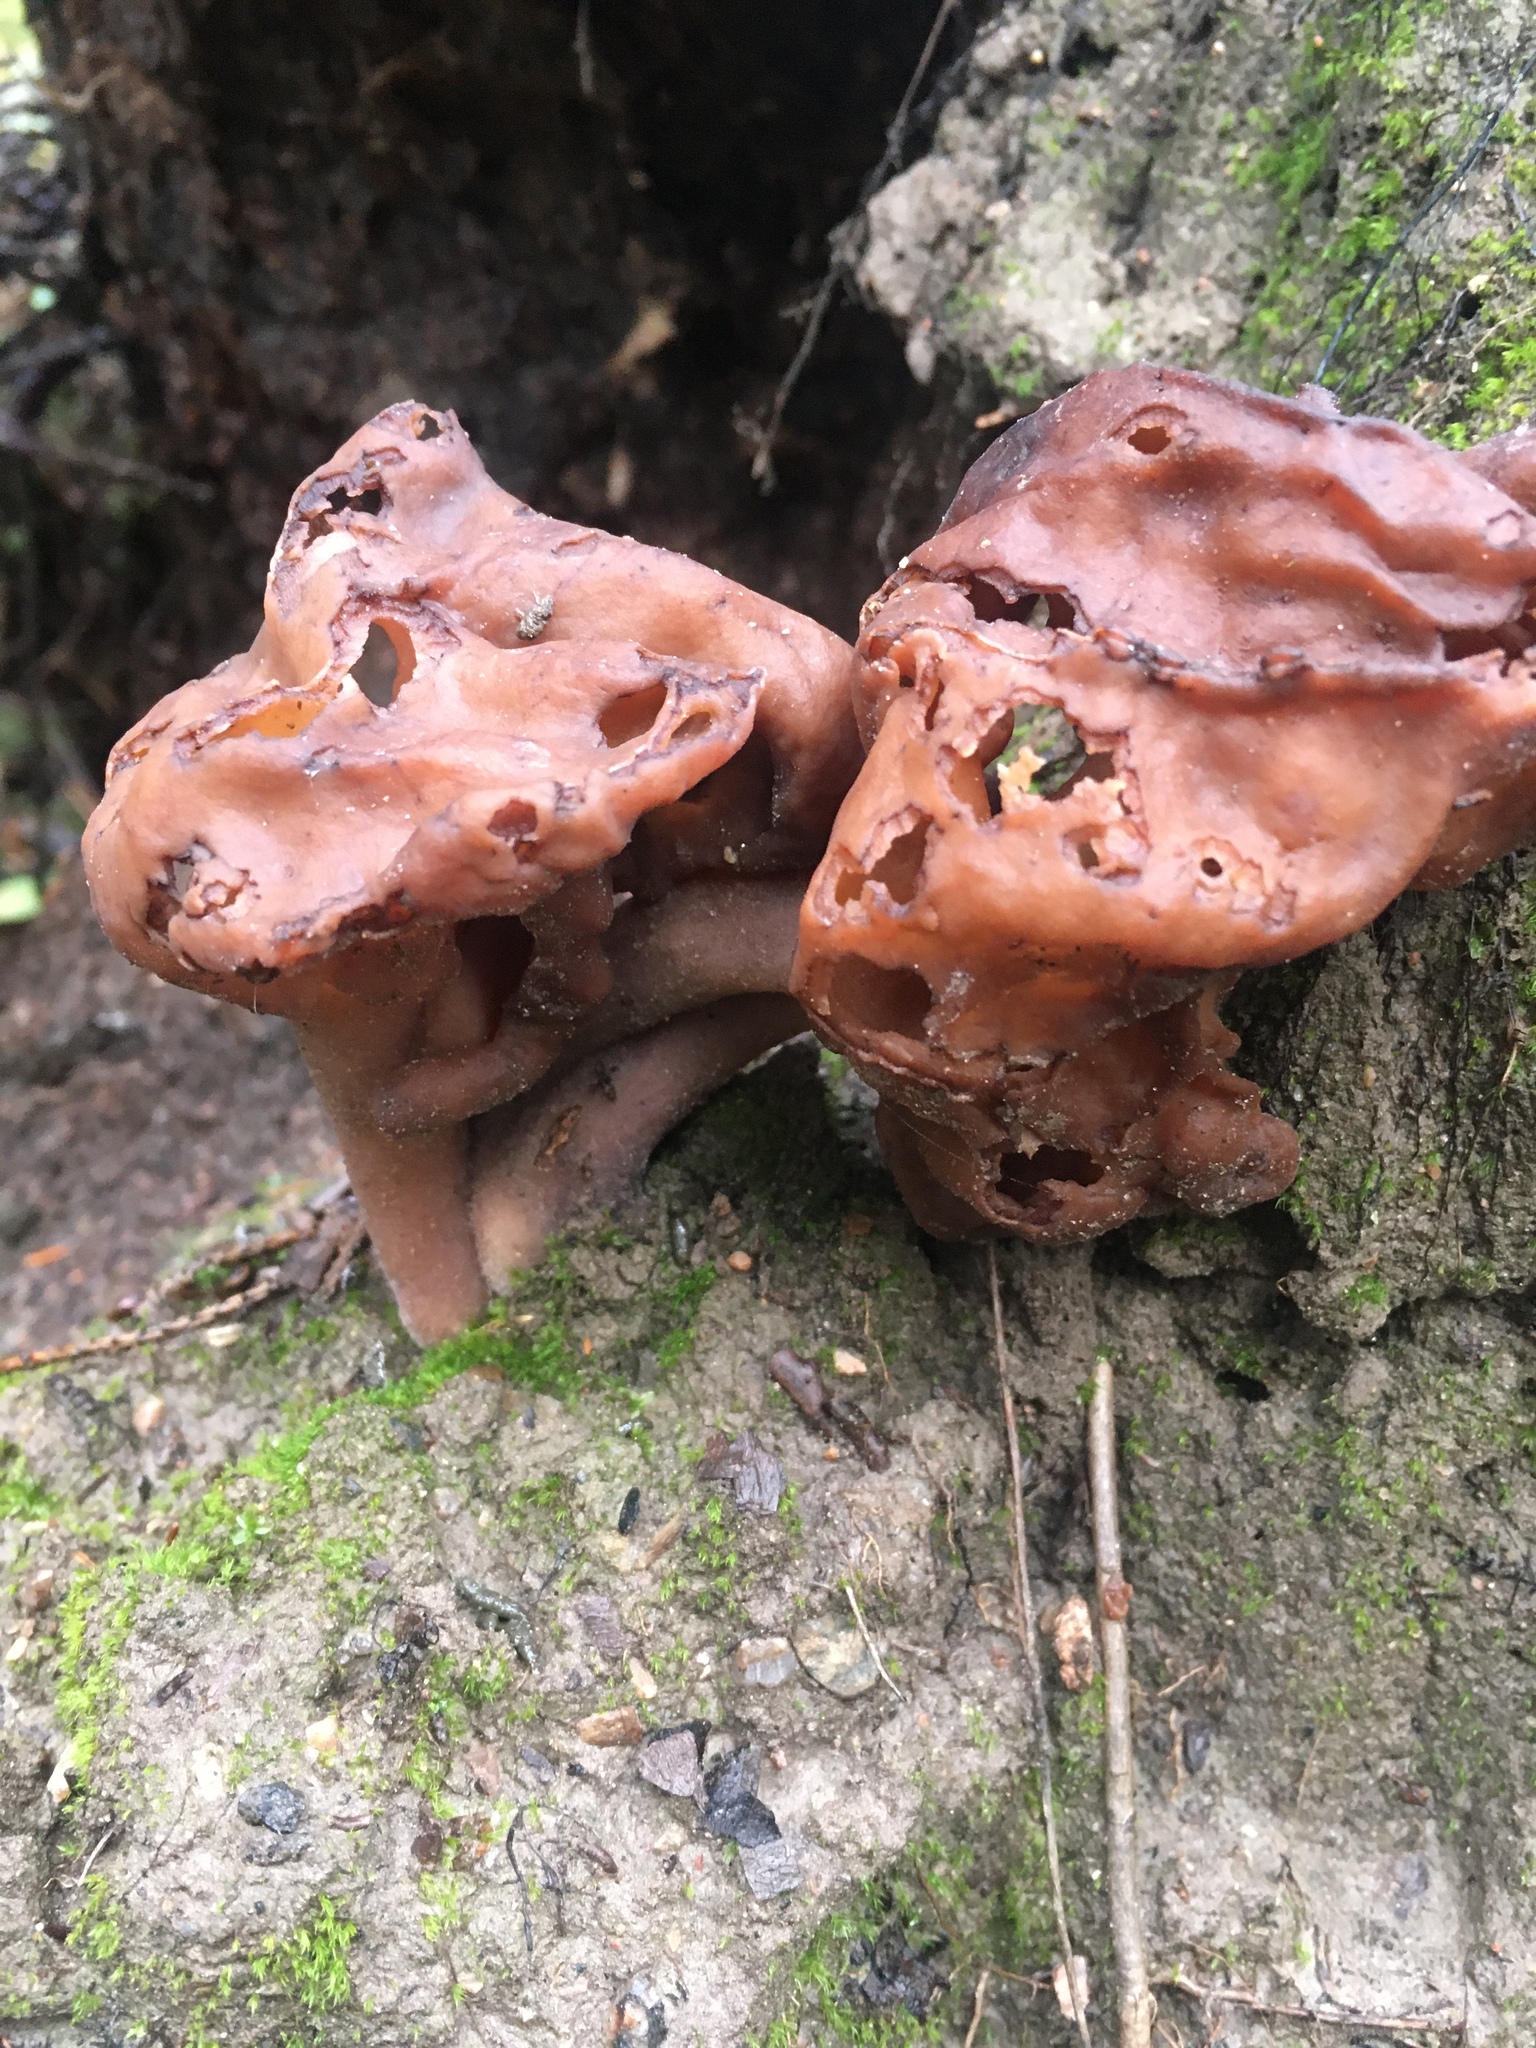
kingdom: Fungi
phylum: Ascomycota
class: Pezizomycetes
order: Pezizales
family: Discinaceae
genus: Gyromitra
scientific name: Gyromitra infula
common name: Pouched false morel
